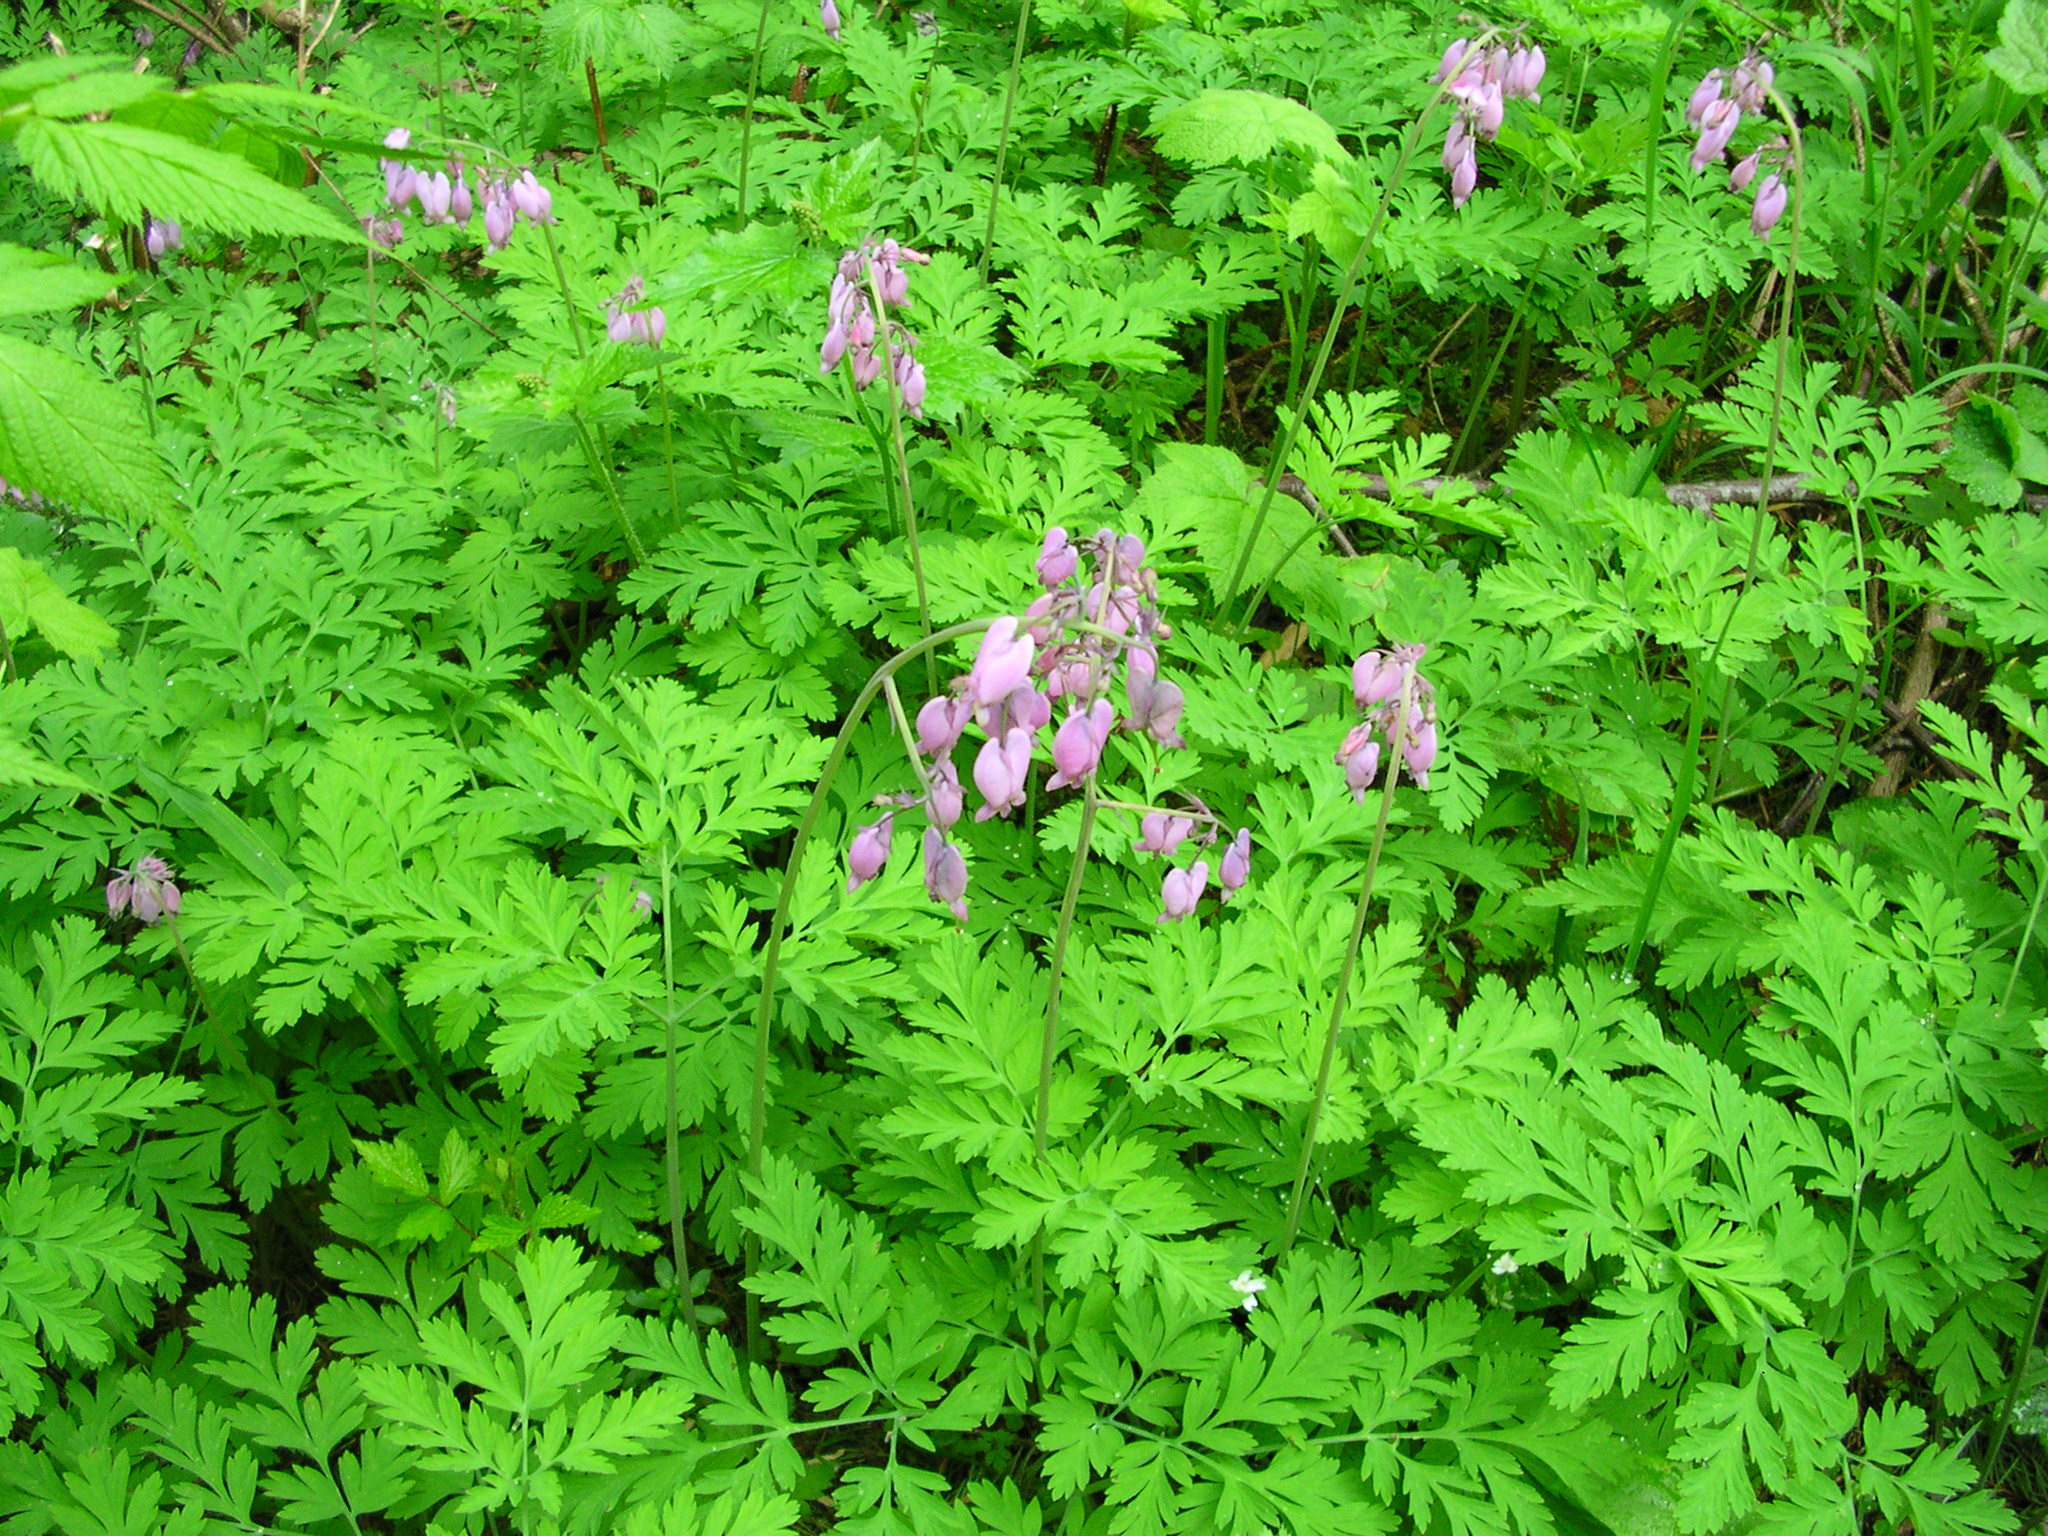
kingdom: Plantae
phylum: Tracheophyta
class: Magnoliopsida
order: Ranunculales
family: Papaveraceae
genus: Dicentra
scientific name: Dicentra formosa
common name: Bleeding-heart
